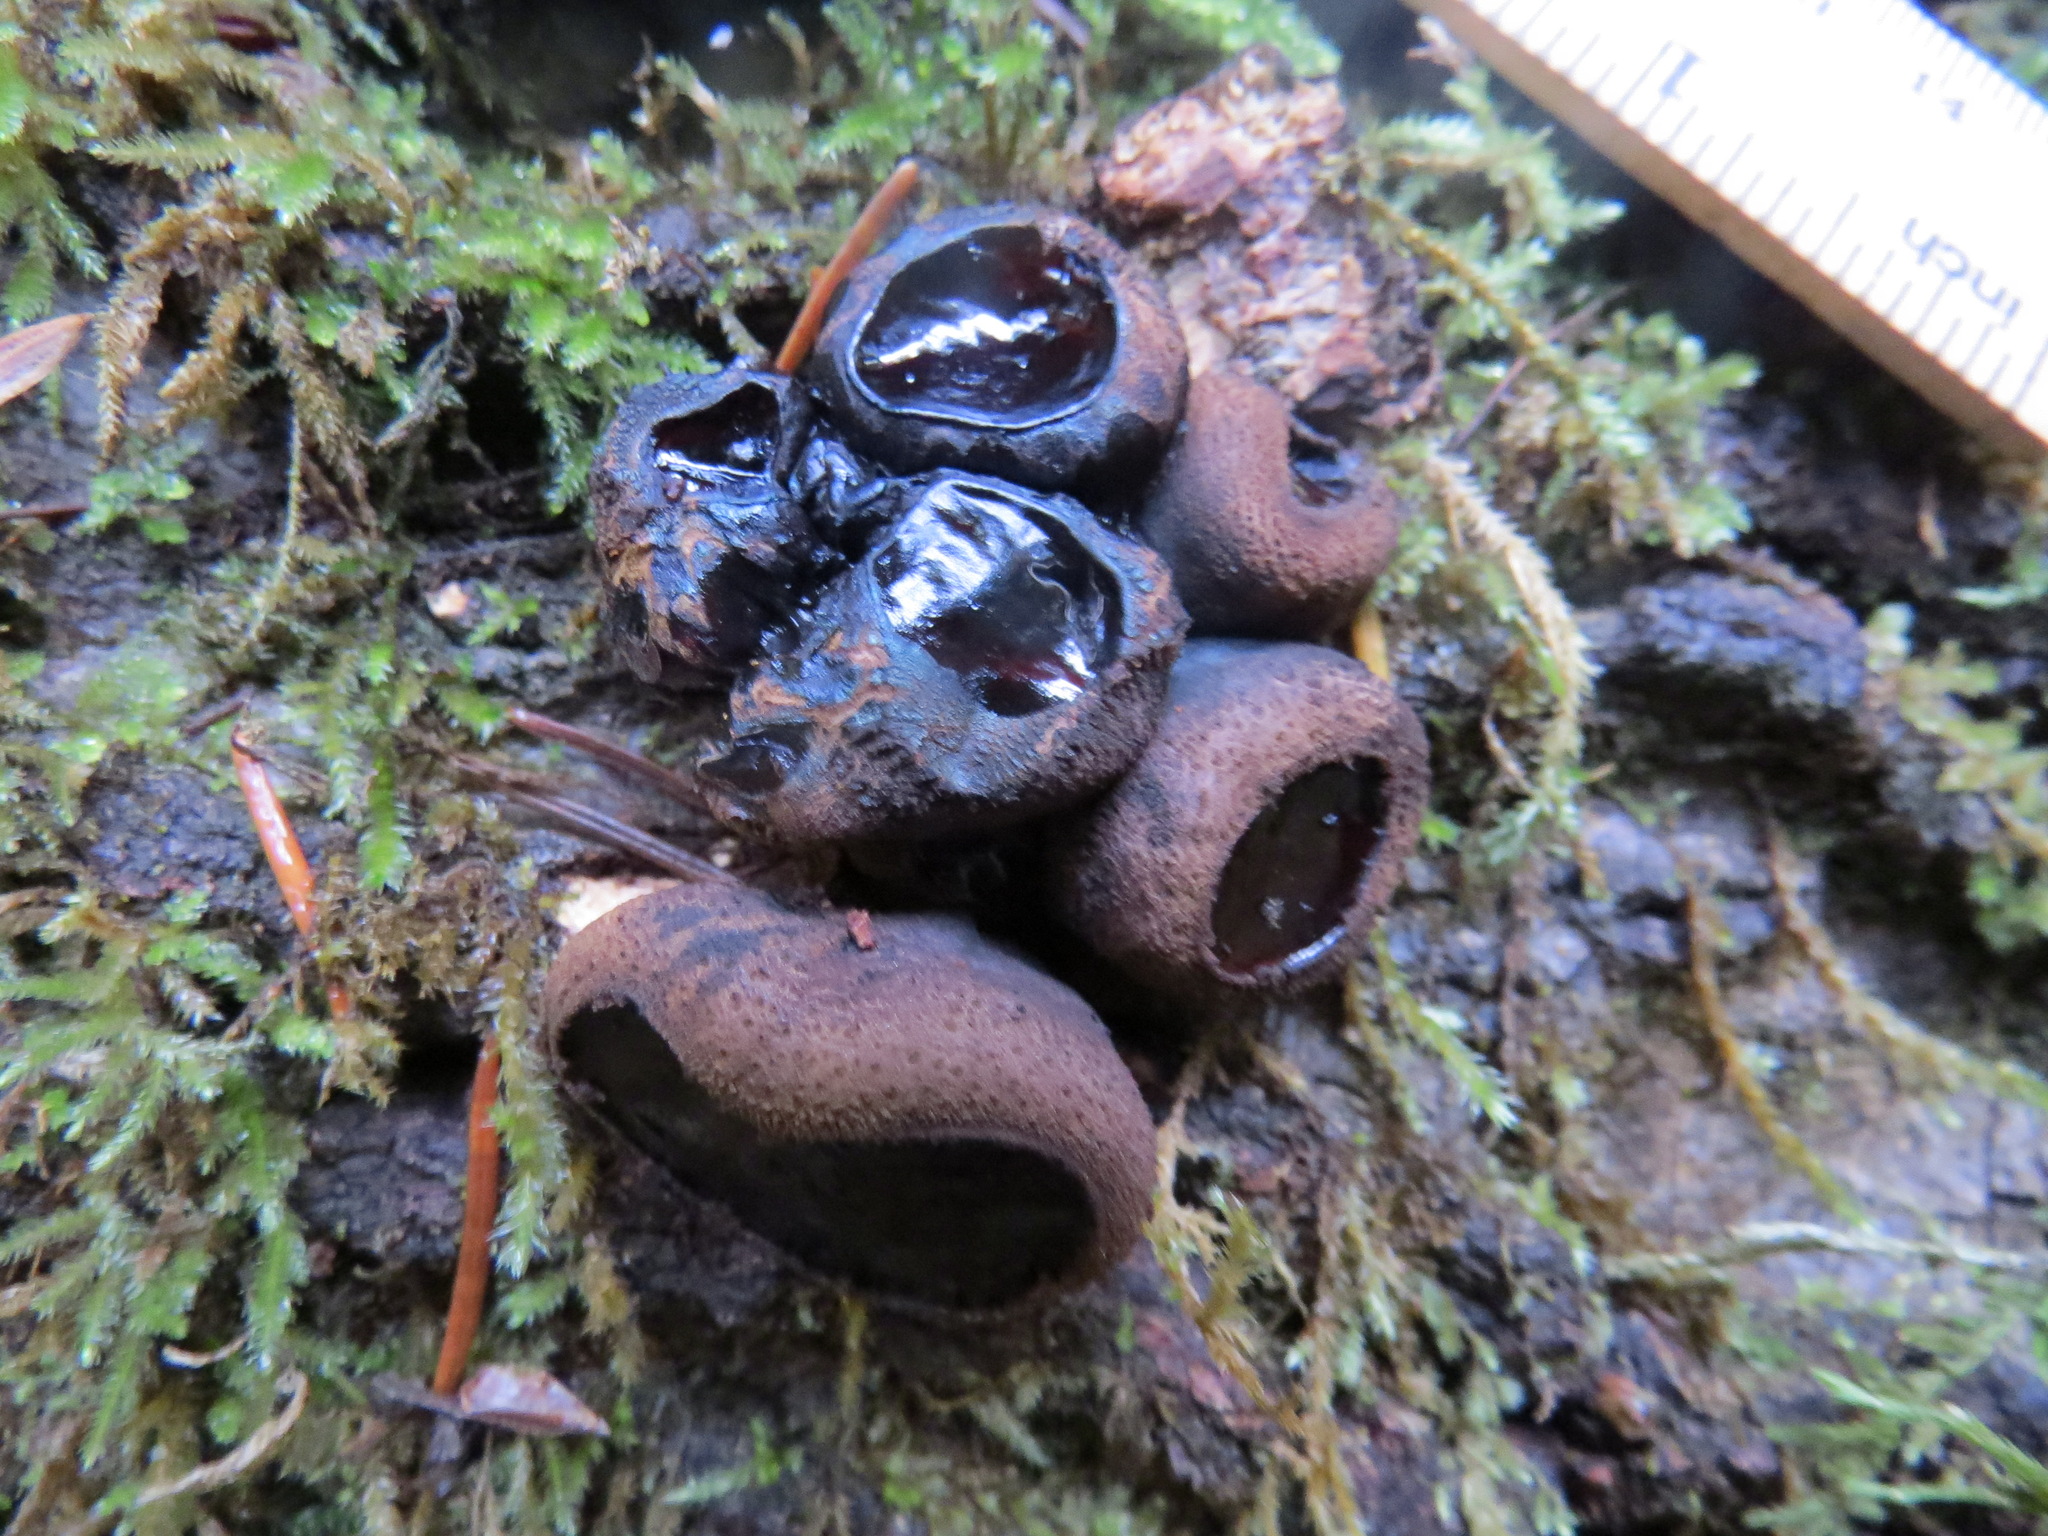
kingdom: Fungi
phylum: Ascomycota
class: Leotiomycetes
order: Phacidiales
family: Phacidiaceae
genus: Bulgaria
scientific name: Bulgaria inquinans
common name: Black bulgar
